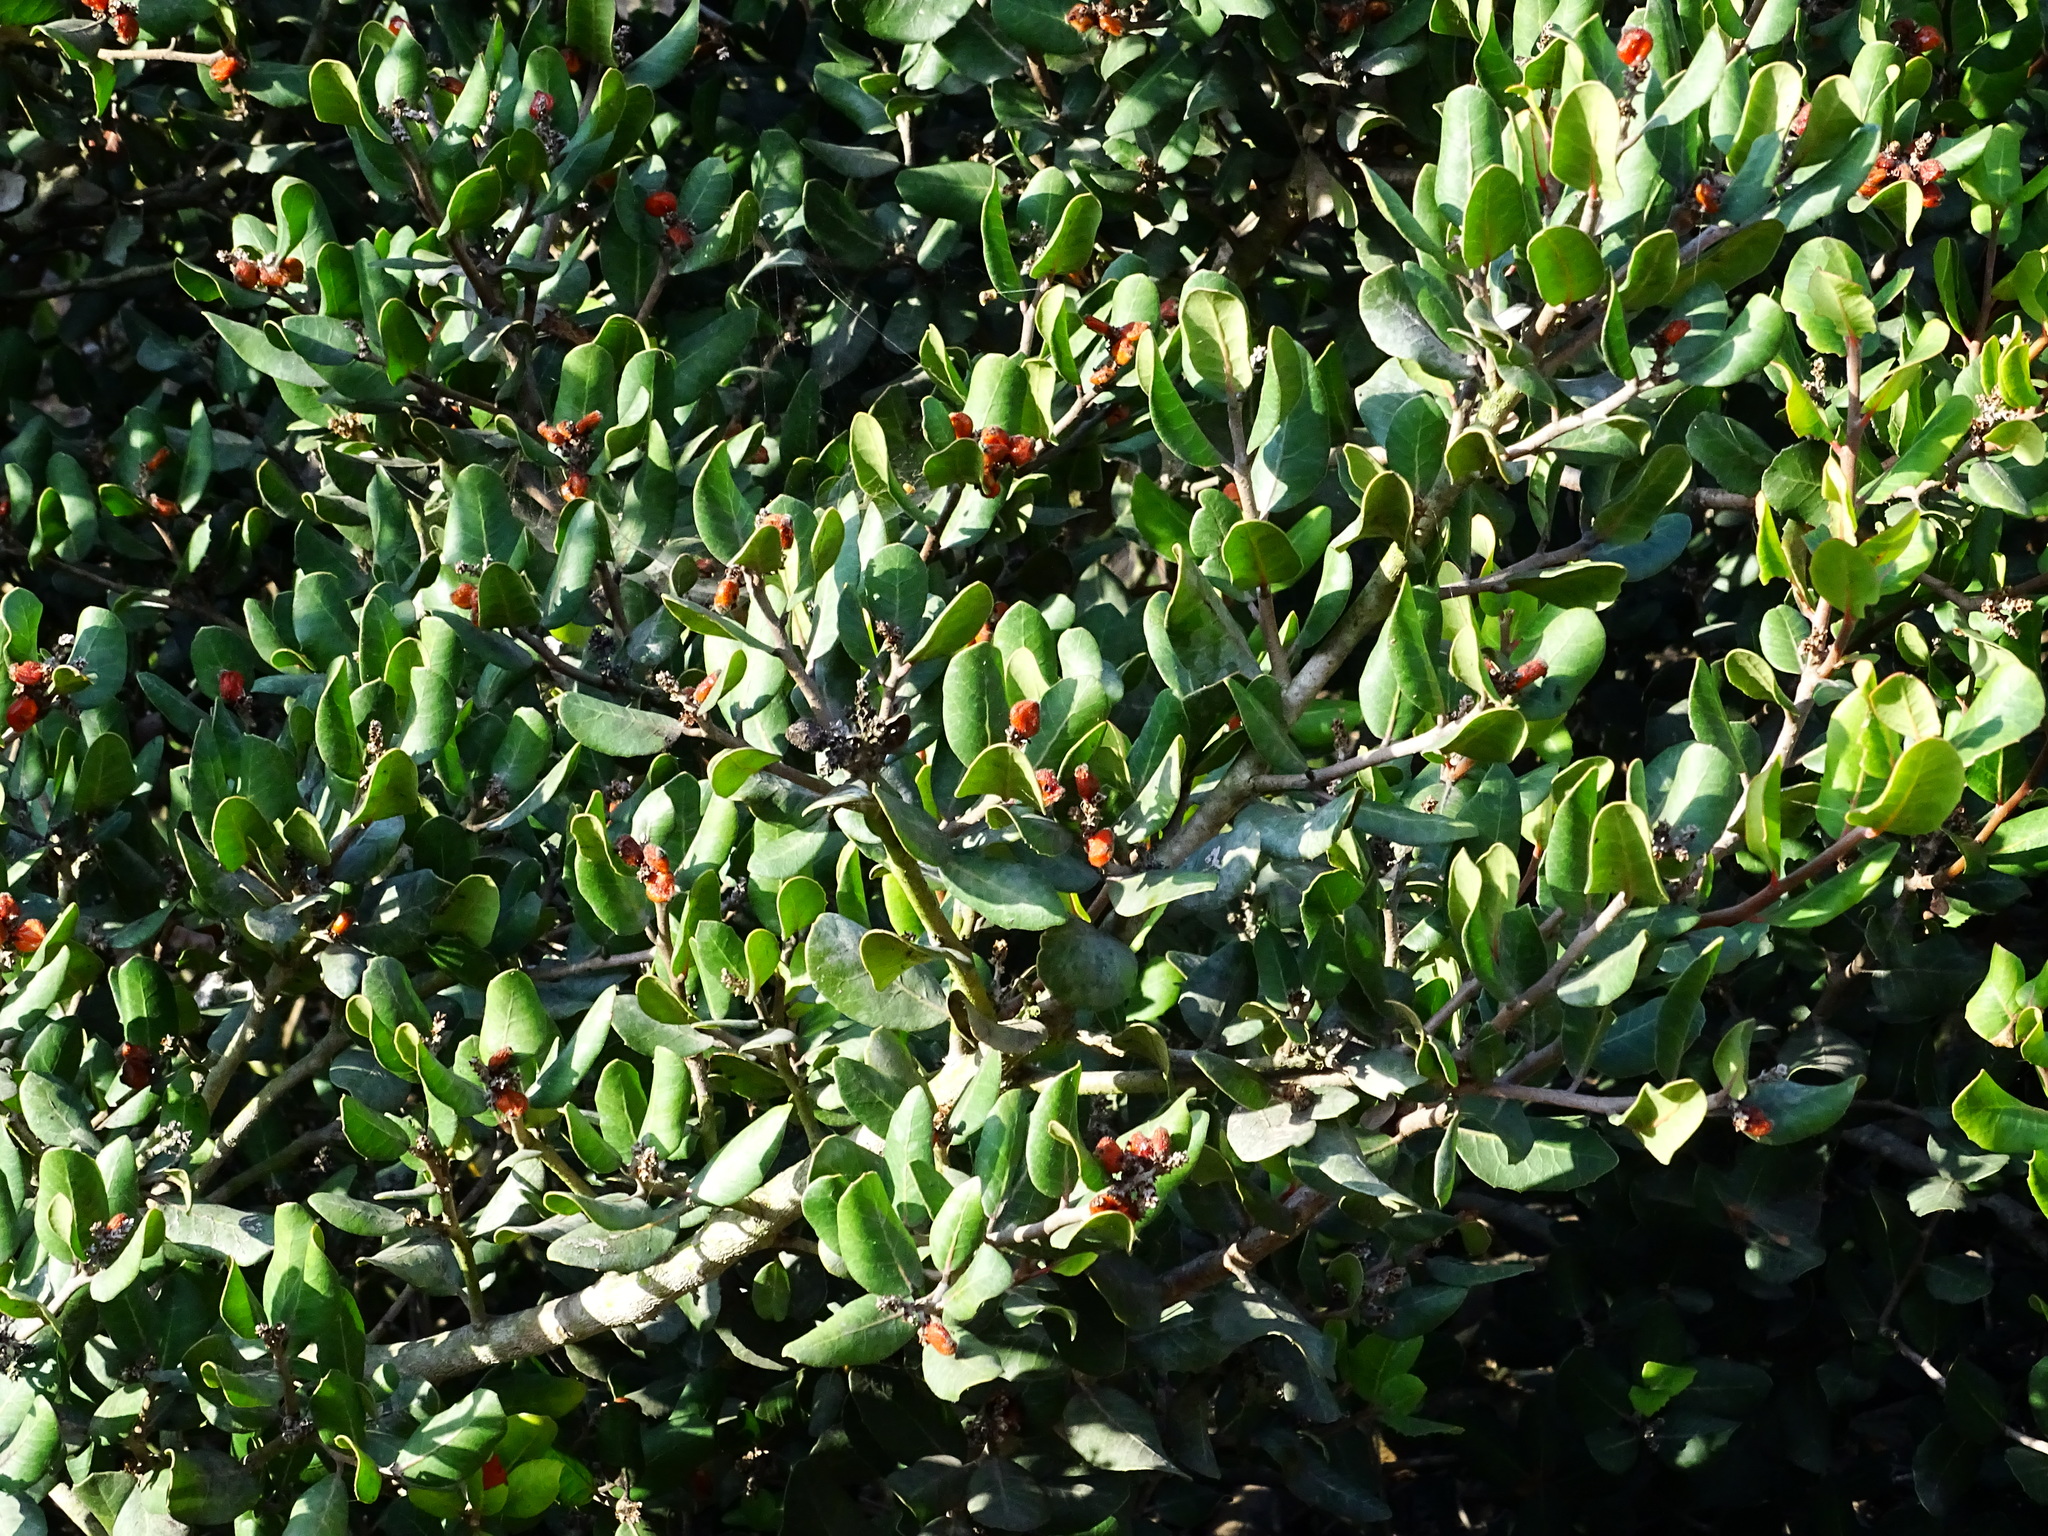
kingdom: Plantae
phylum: Tracheophyta
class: Magnoliopsida
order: Sapindales
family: Anacardiaceae
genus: Rhus
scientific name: Rhus integrifolia
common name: Lemonade sumac
